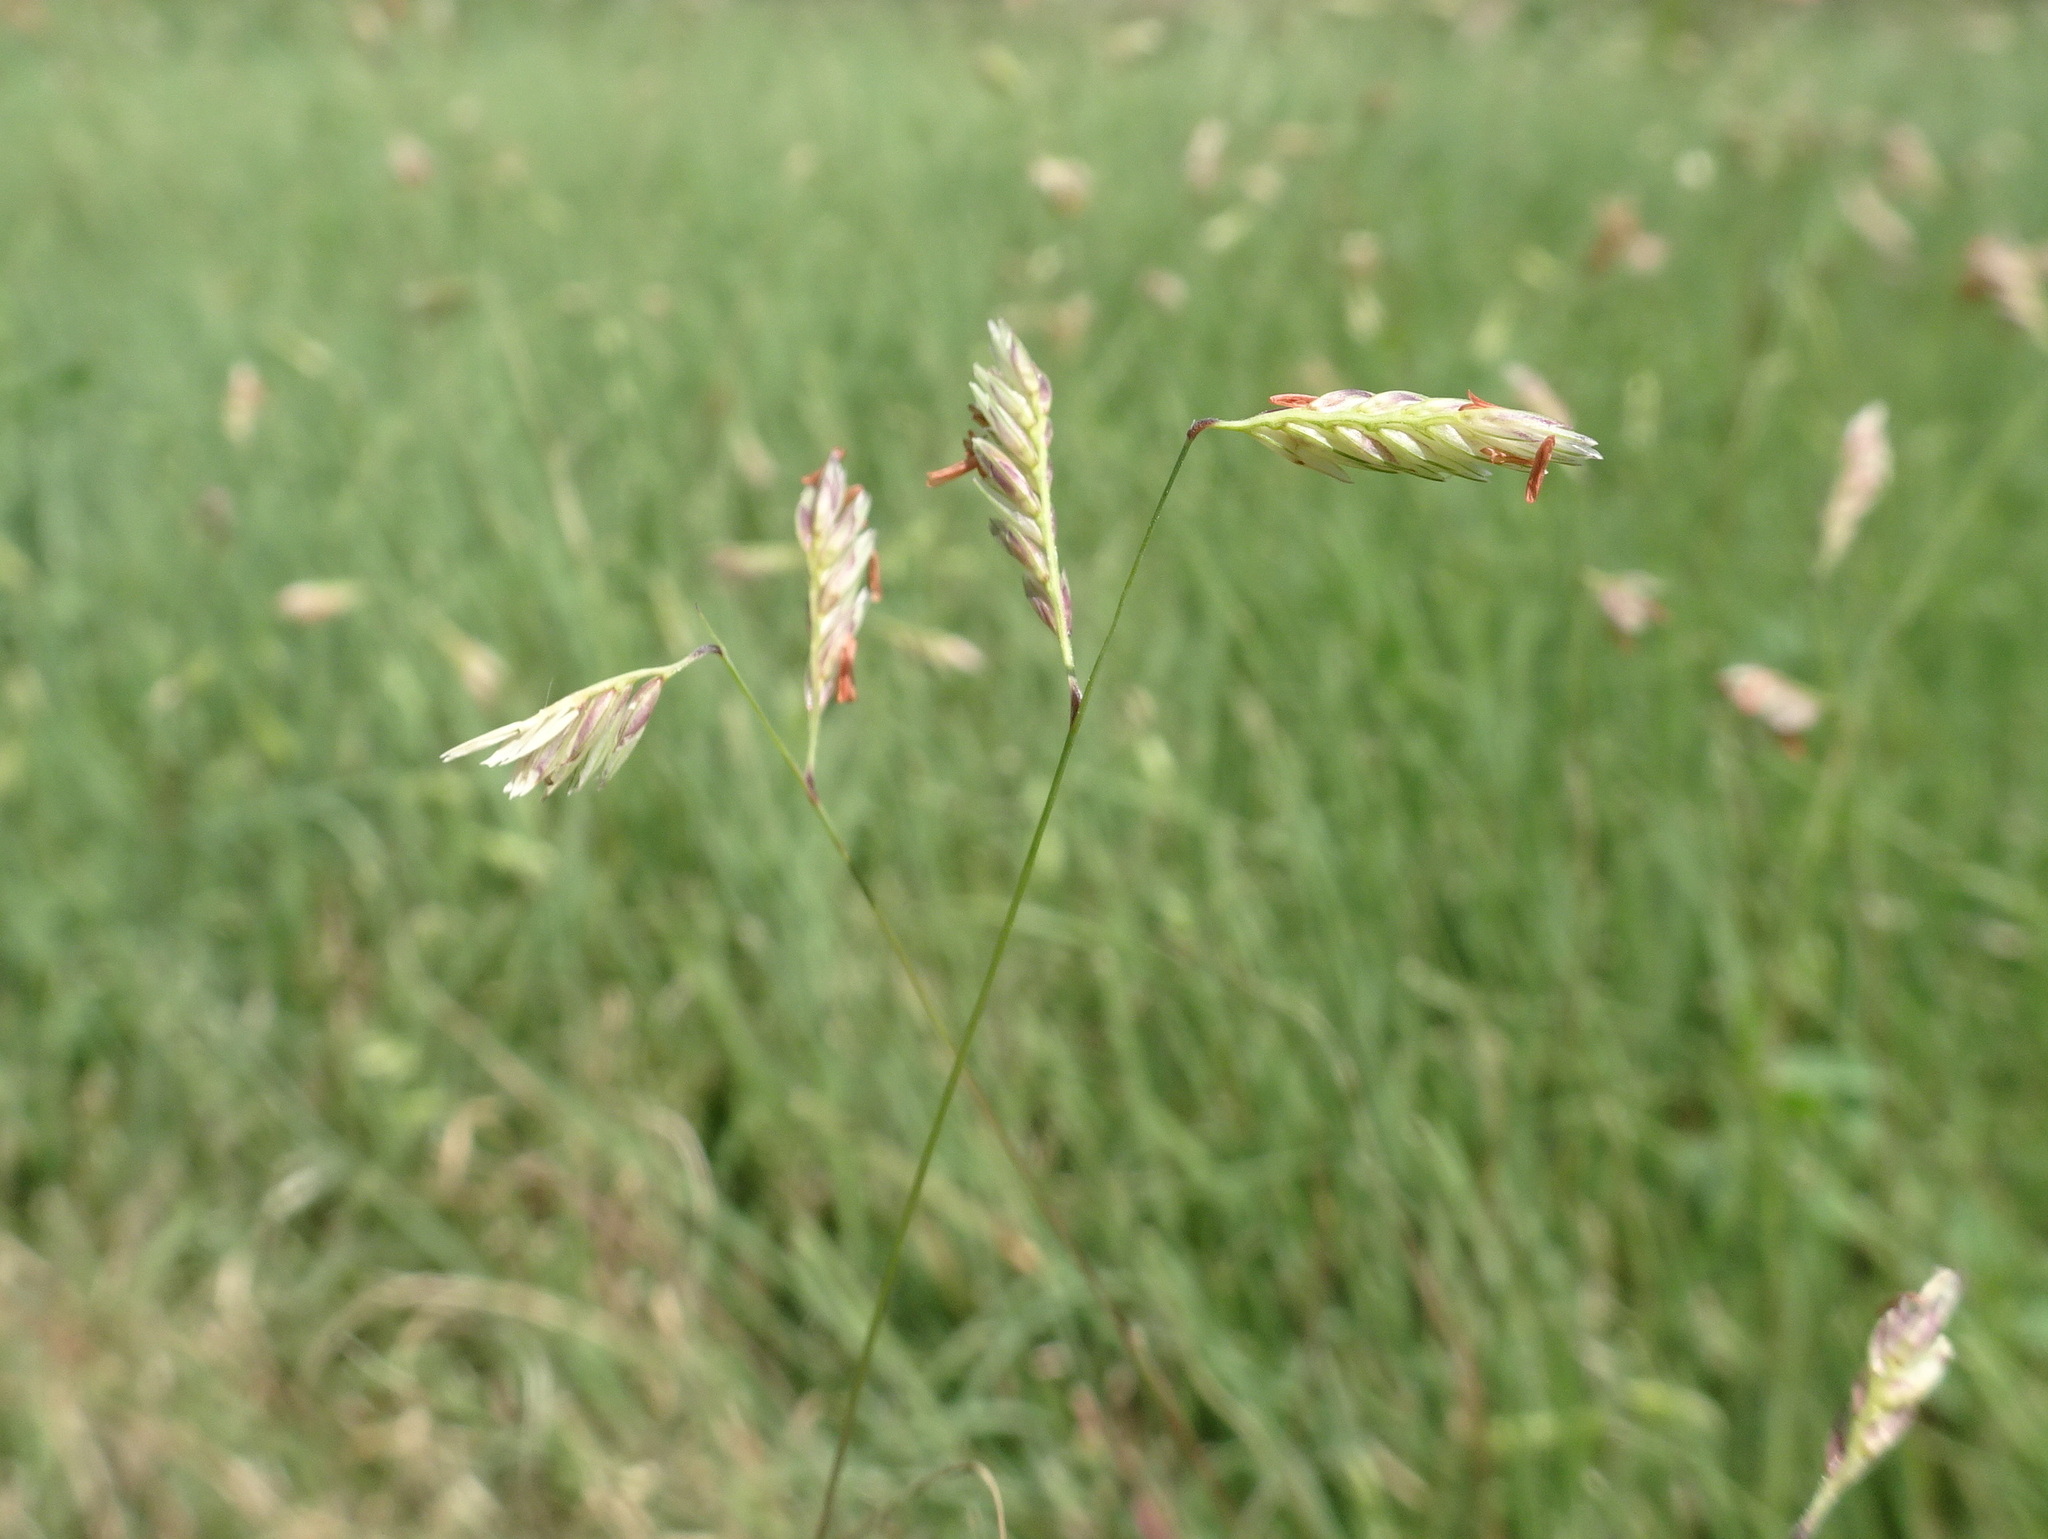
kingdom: Plantae
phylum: Tracheophyta
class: Liliopsida
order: Poales
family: Poaceae
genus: Bouteloua
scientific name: Bouteloua dactyloides
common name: Buffalo grass
